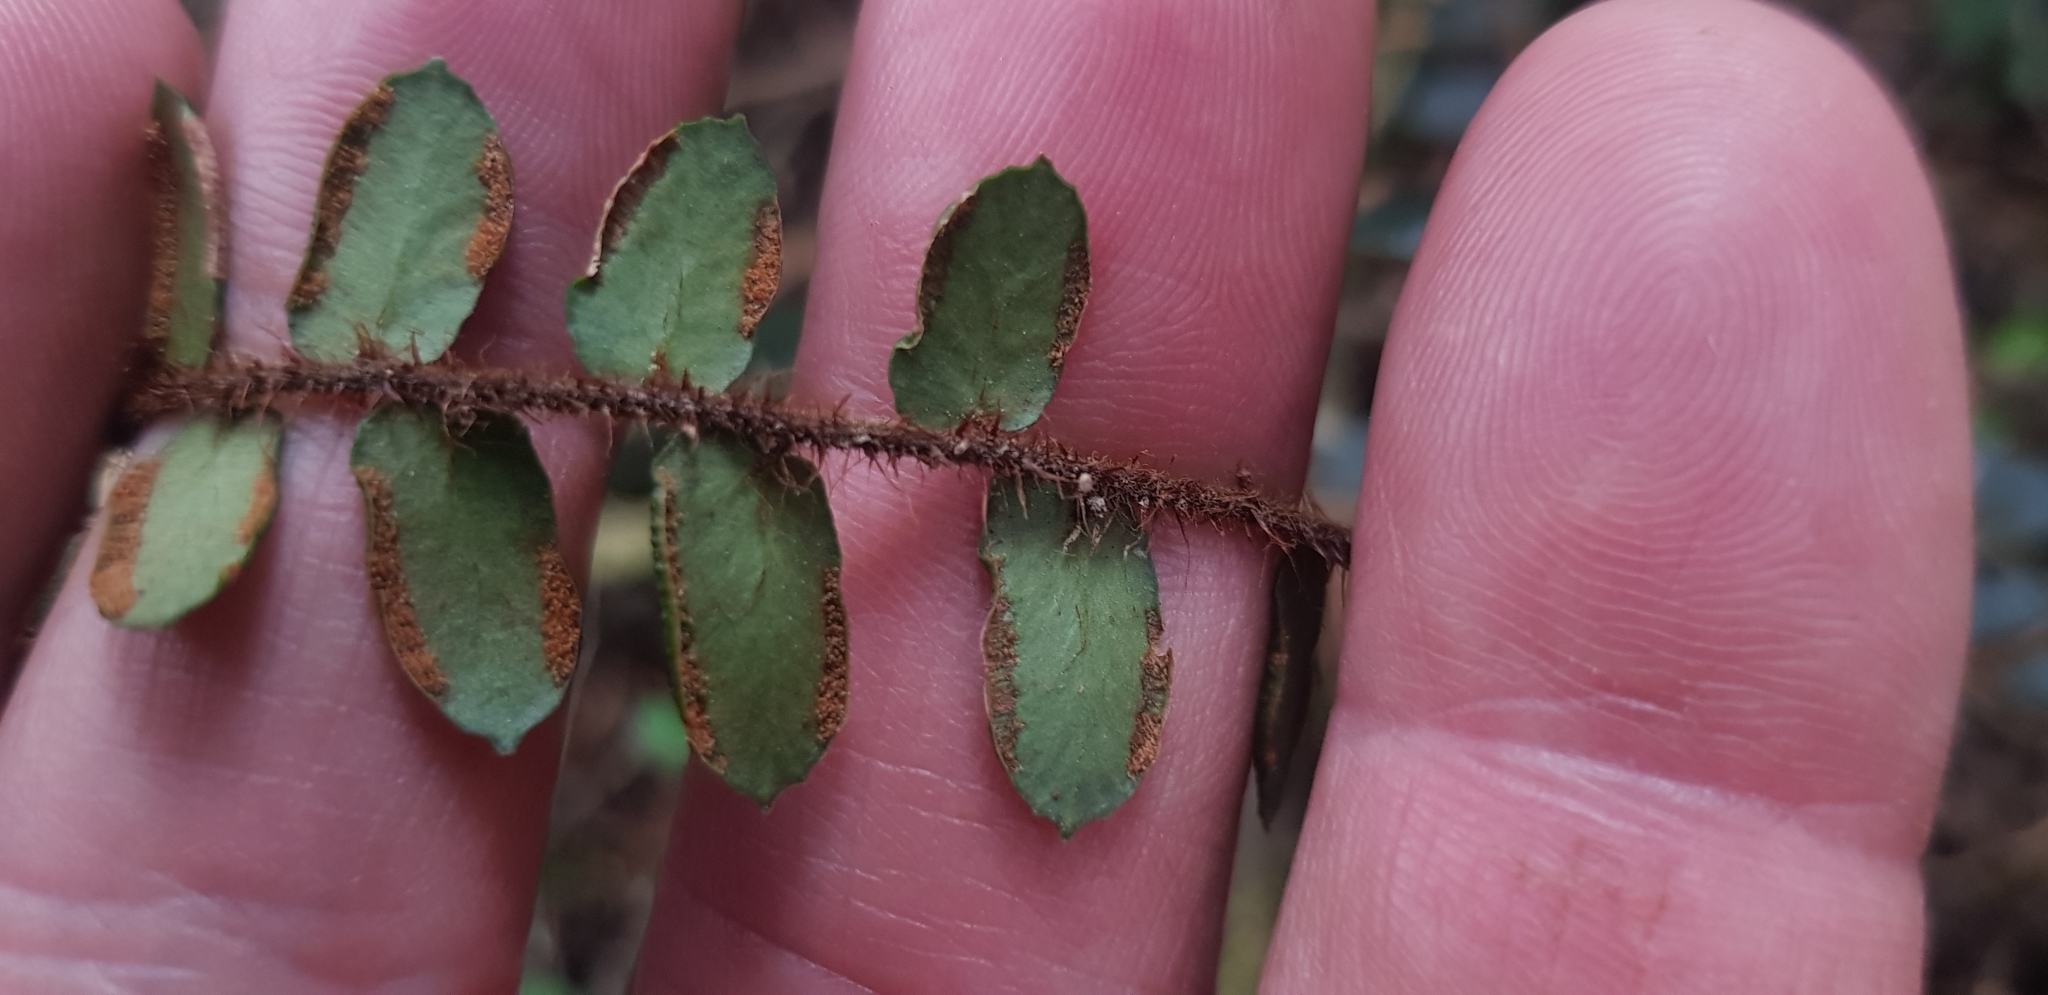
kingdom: Plantae
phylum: Tracheophyta
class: Polypodiopsida
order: Polypodiales
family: Pteridaceae
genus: Pellaea
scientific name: Pellaea rotundifolia
